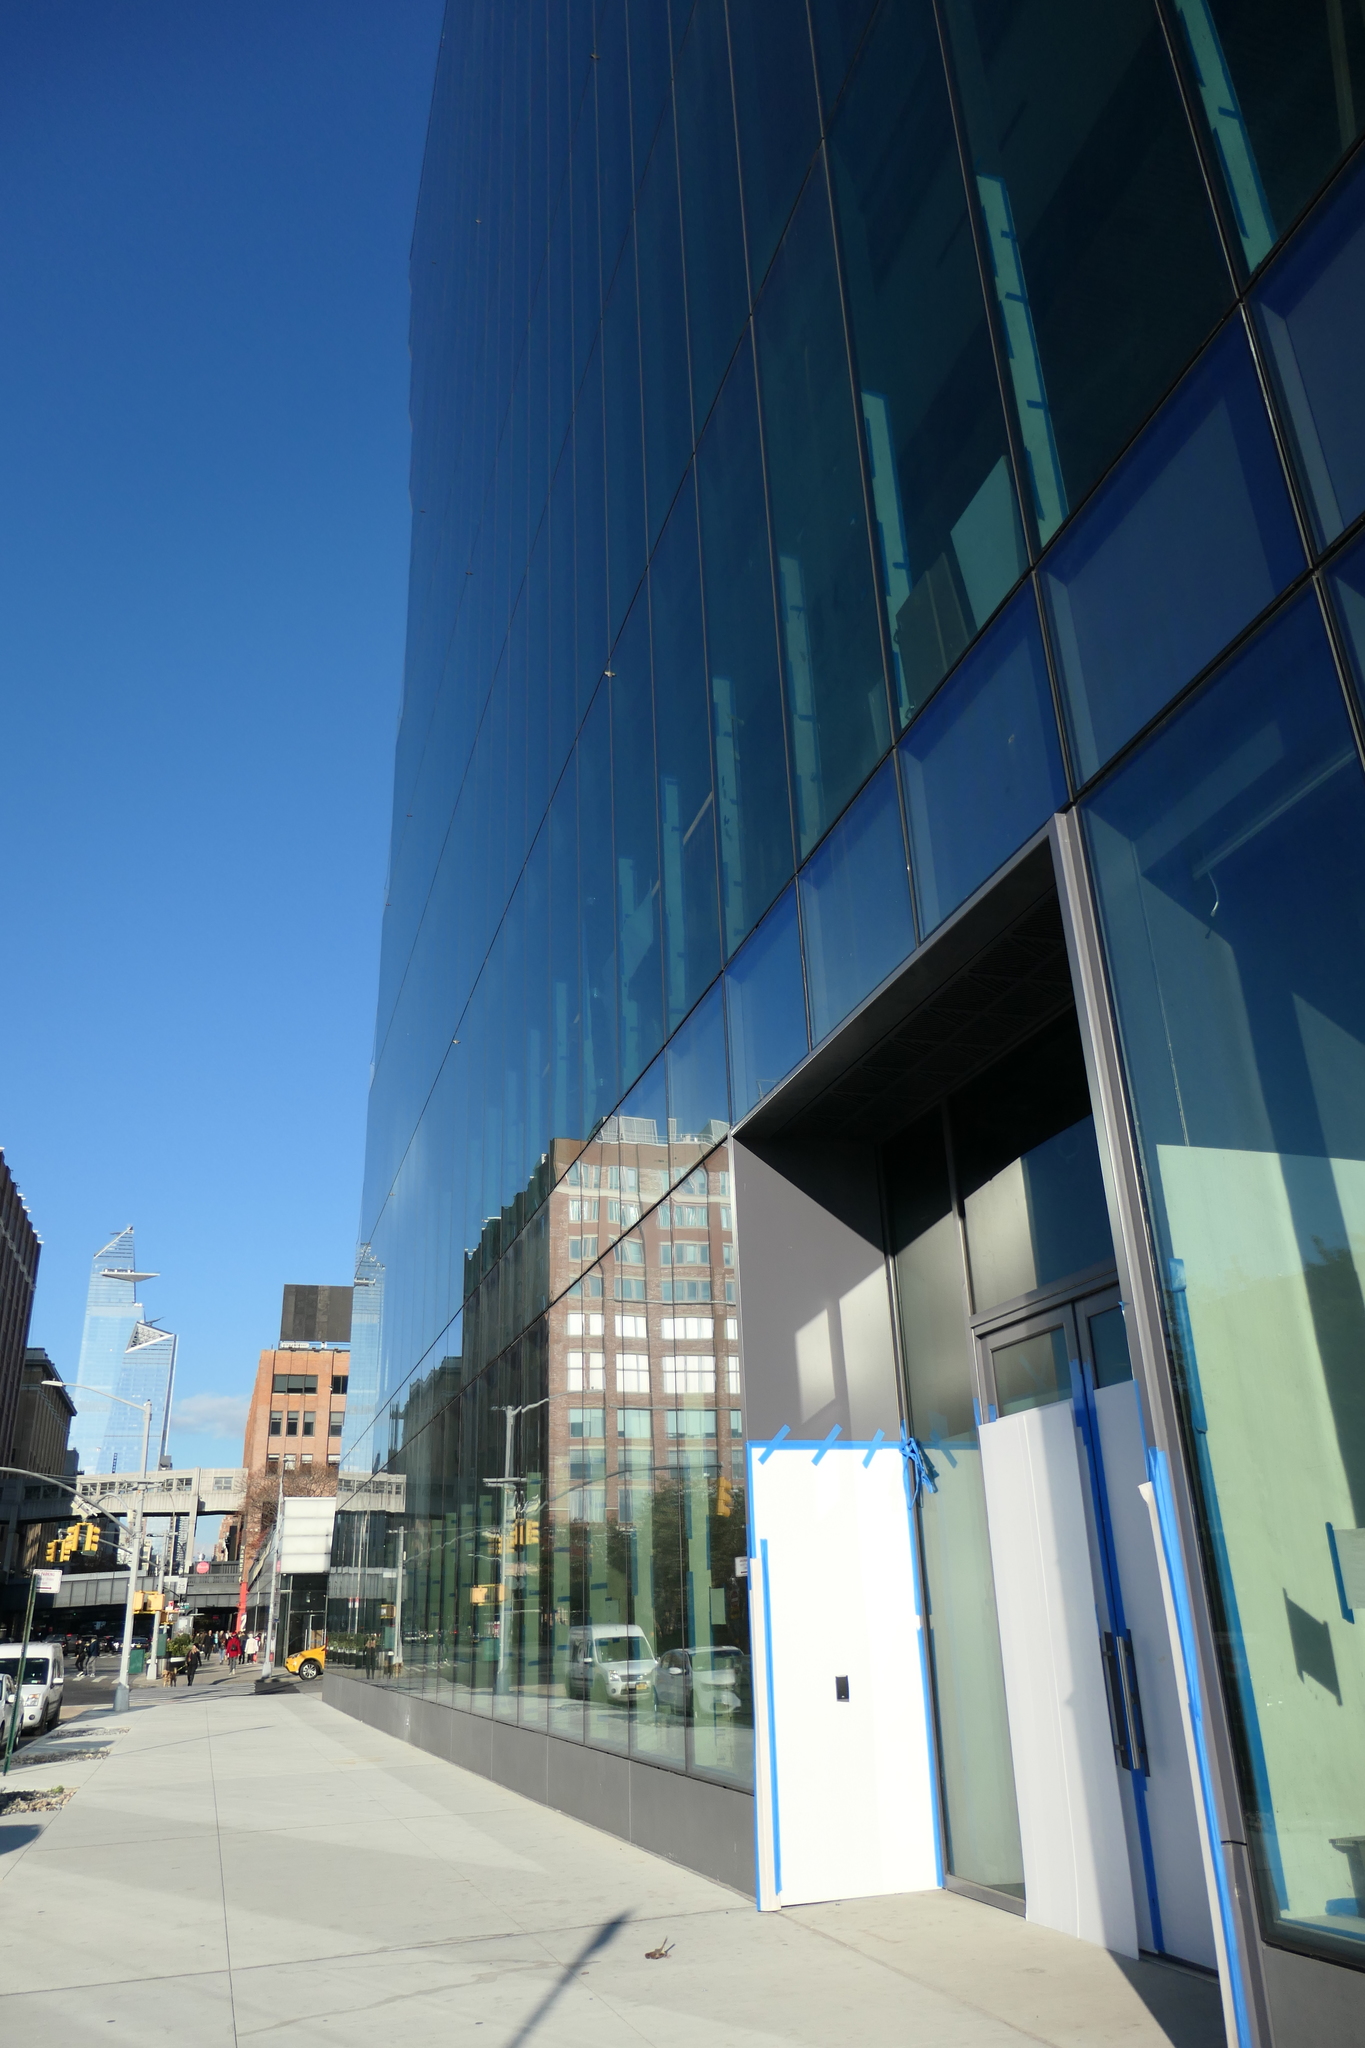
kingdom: Animalia
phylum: Chordata
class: Aves
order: Passeriformes
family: Passerellidae
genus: Zonotrichia
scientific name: Zonotrichia albicollis
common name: White-throated sparrow
